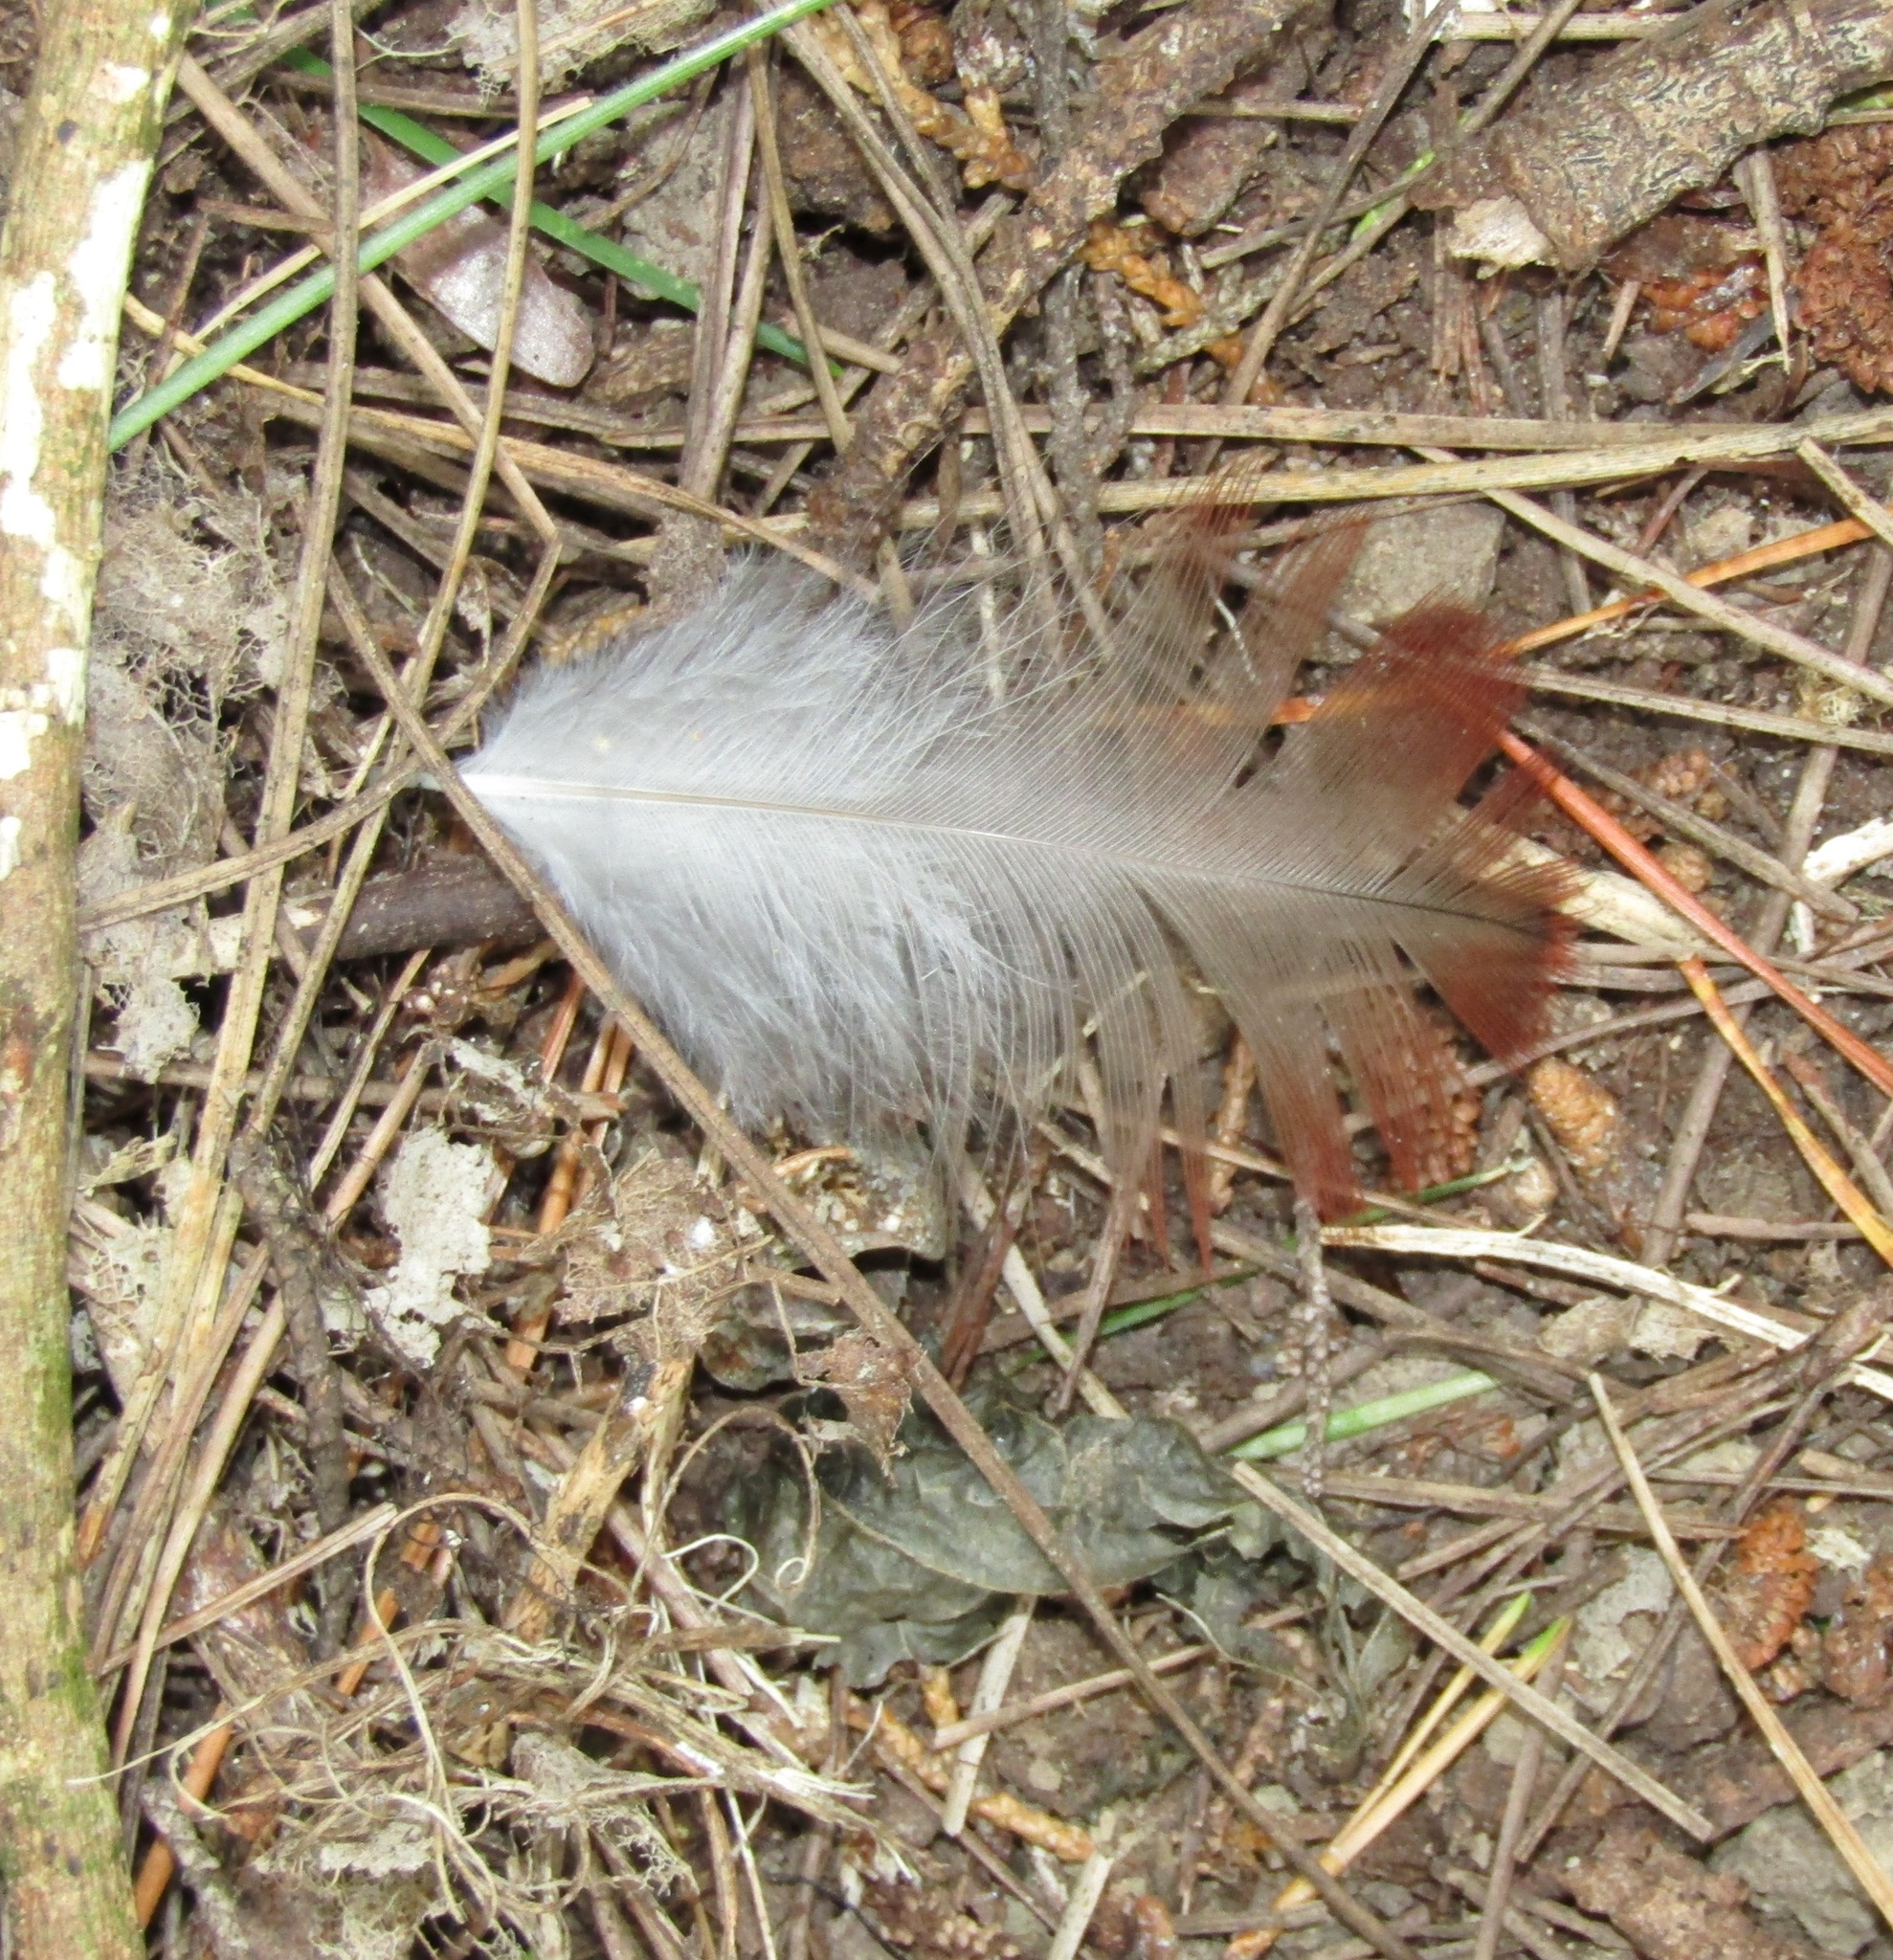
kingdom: Animalia
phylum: Chordata
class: Aves
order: Psittaciformes
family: Psittacidae
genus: Nestor
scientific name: Nestor meridionalis
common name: New zealand kaka
